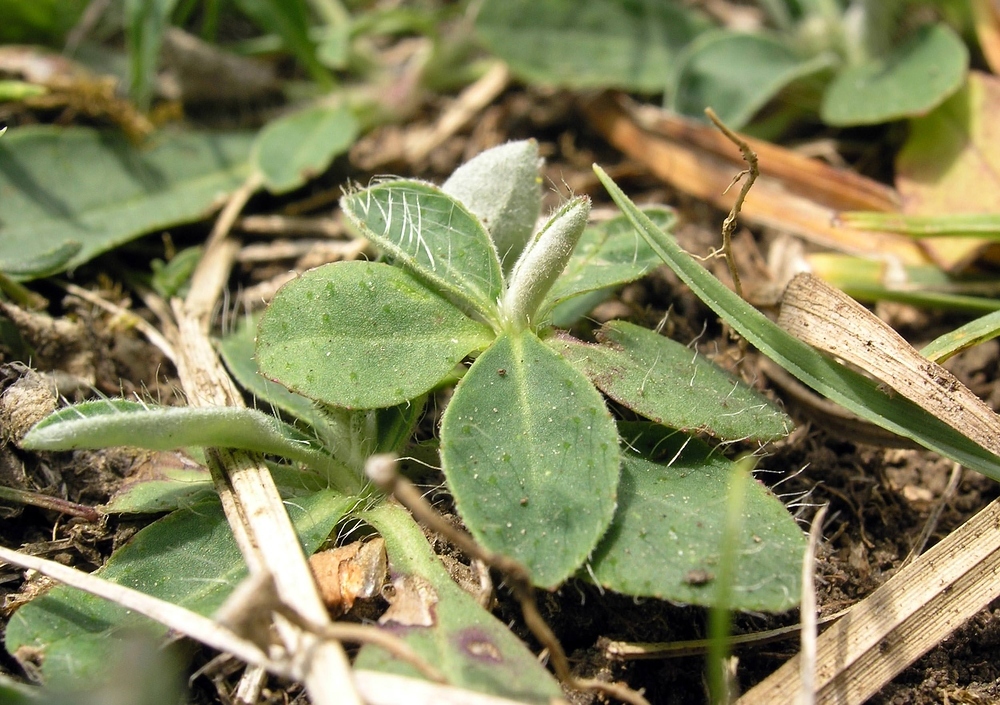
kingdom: Plantae
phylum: Tracheophyta
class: Magnoliopsida
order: Asterales
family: Asteraceae
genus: Pilosella
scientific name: Pilosella officinarum
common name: Mouse-ear hawkweed
